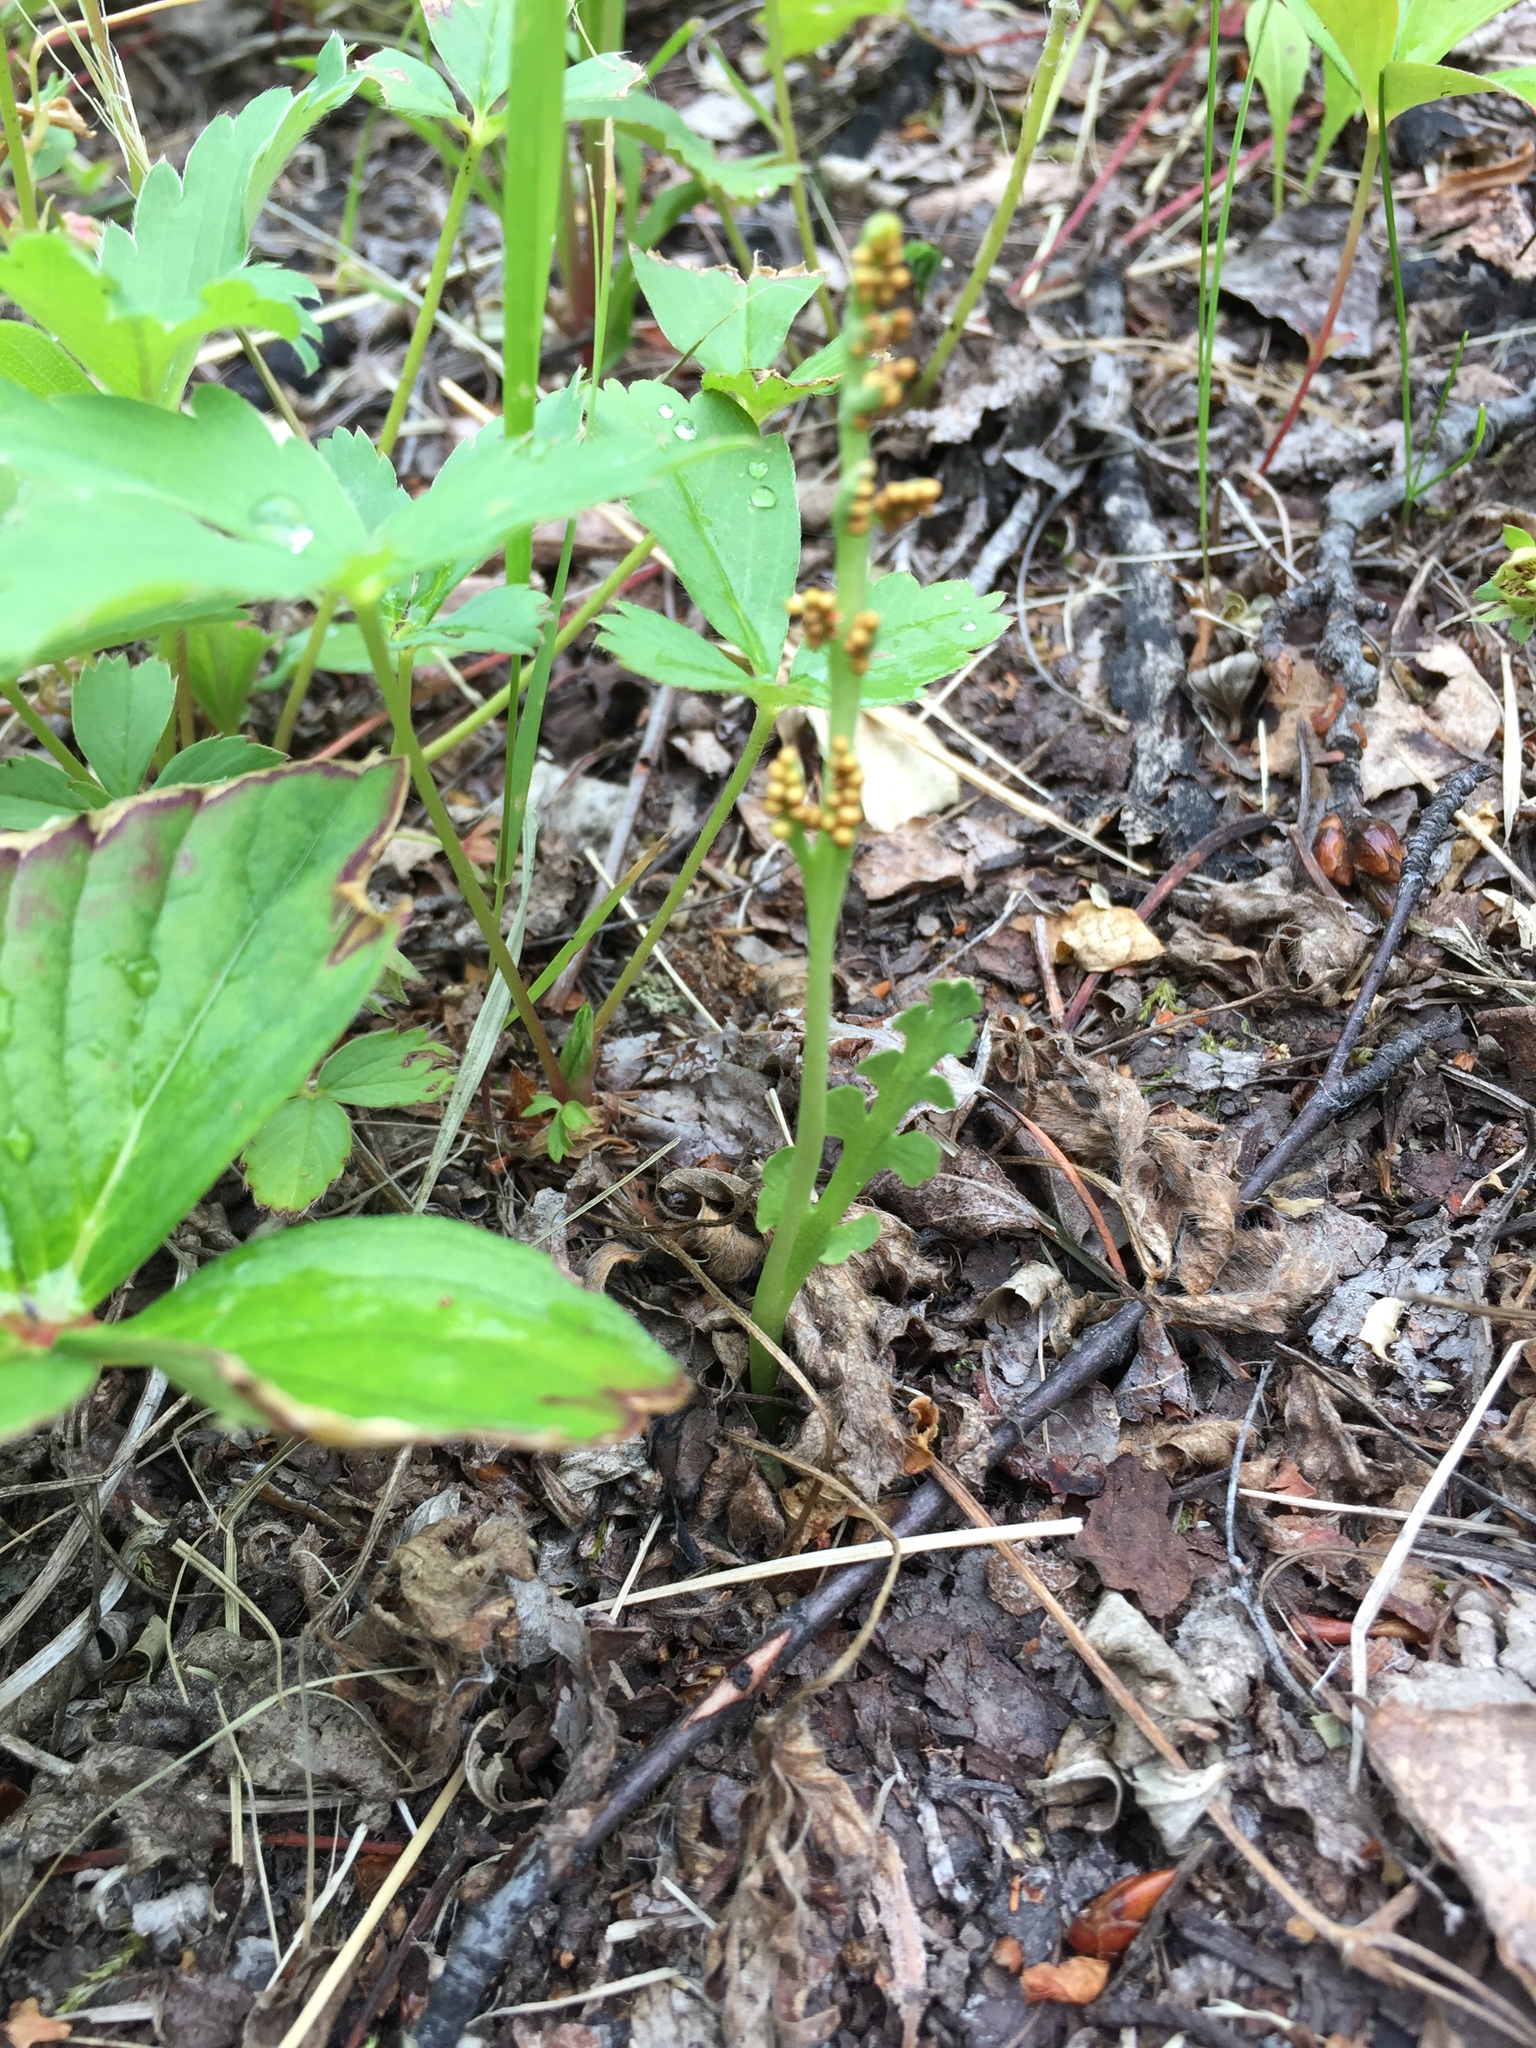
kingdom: Plantae
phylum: Tracheophyta
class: Polypodiopsida
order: Ophioglossales
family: Ophioglossaceae
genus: Botrychium
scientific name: Botrychium minganense
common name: Mingan grapefern
